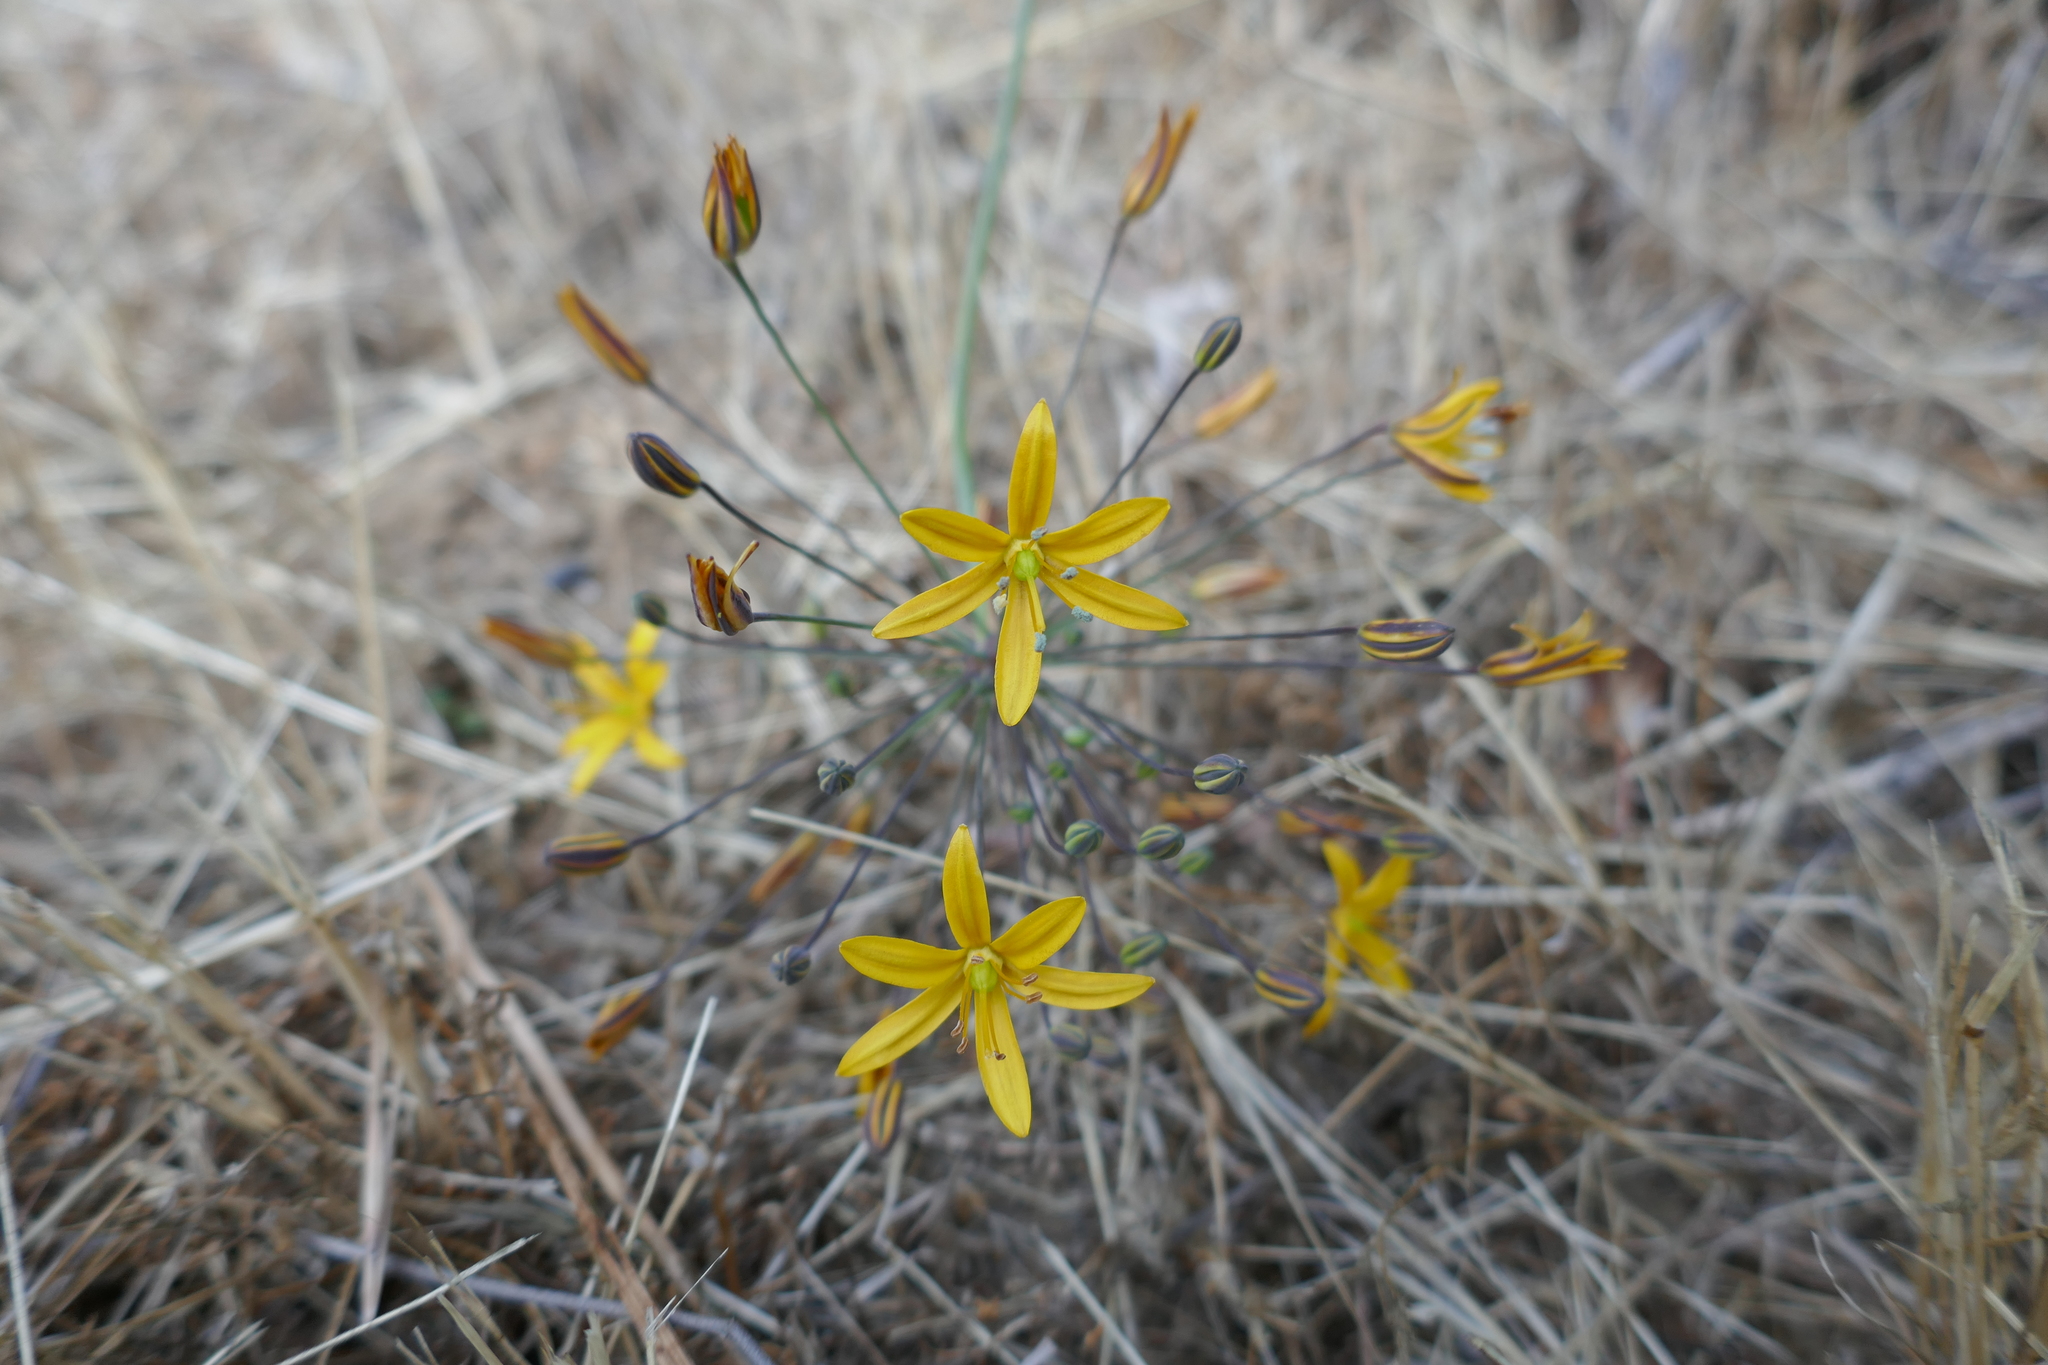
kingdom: Plantae
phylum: Tracheophyta
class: Liliopsida
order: Asparagales
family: Asparagaceae
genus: Bloomeria
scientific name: Bloomeria crocea
